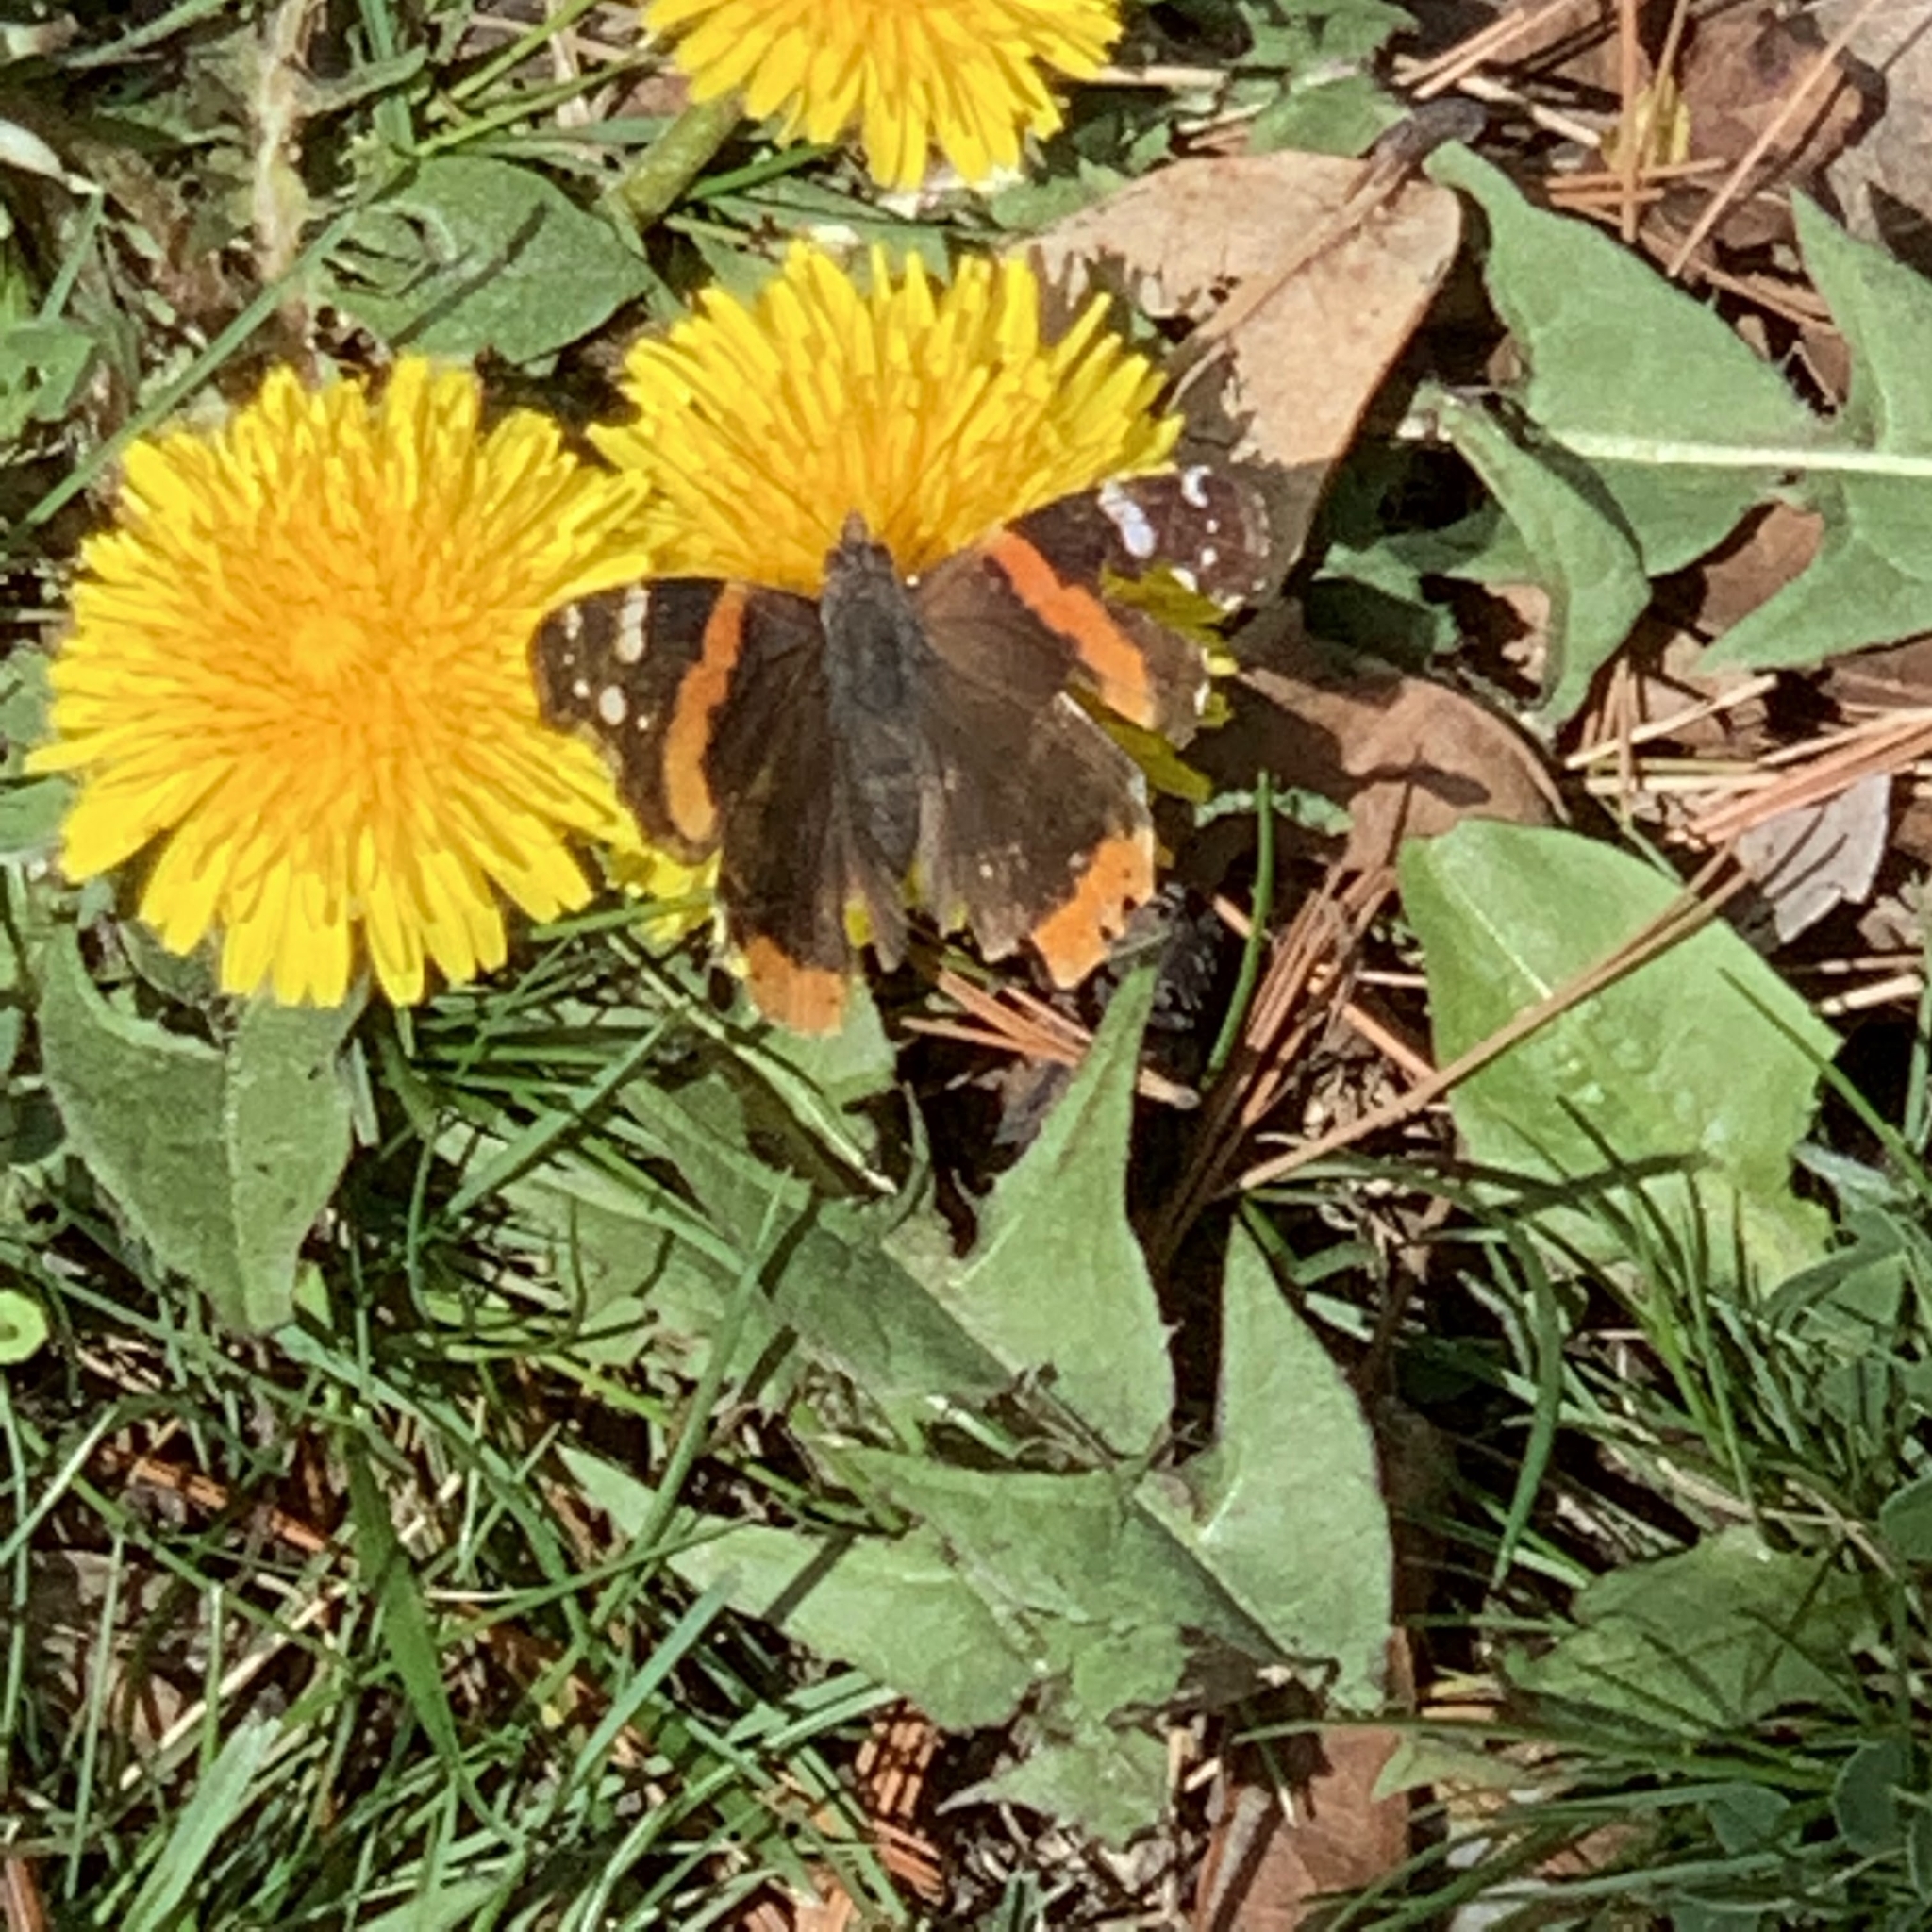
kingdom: Animalia
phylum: Arthropoda
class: Insecta
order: Lepidoptera
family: Nymphalidae
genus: Vanessa
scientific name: Vanessa atalanta
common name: Red admiral
